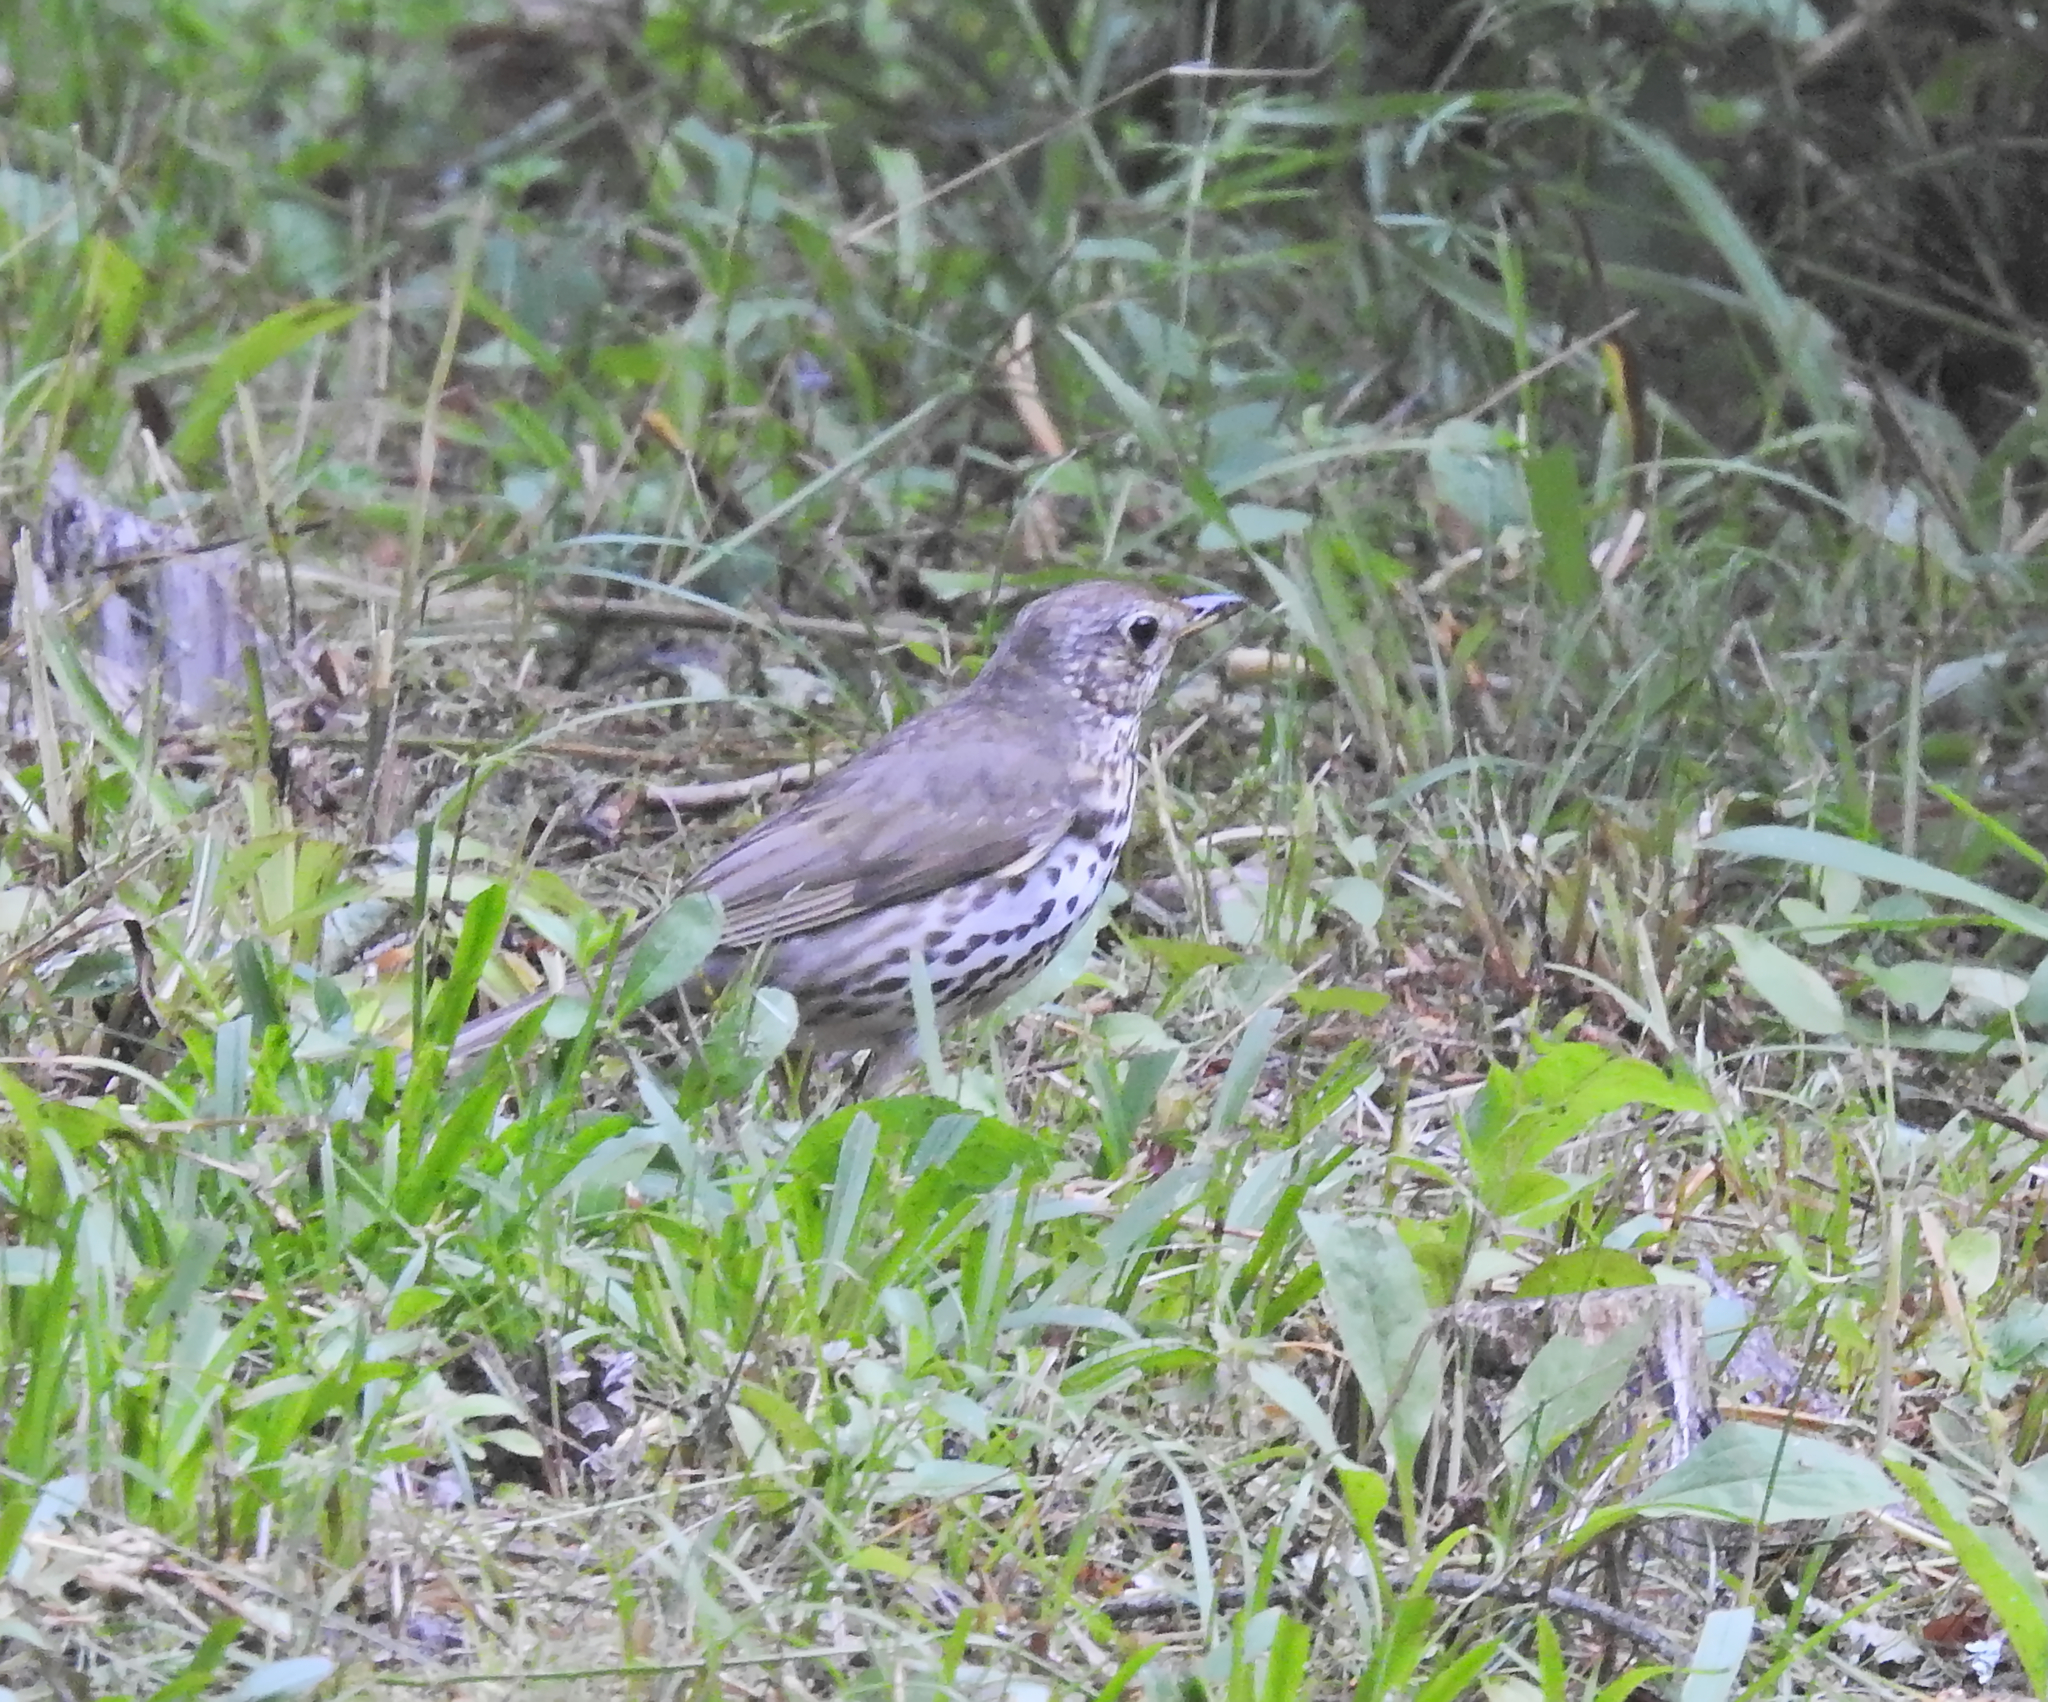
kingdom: Animalia
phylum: Chordata
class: Aves
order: Passeriformes
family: Turdidae
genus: Turdus
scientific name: Turdus philomelos
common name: Song thrush
